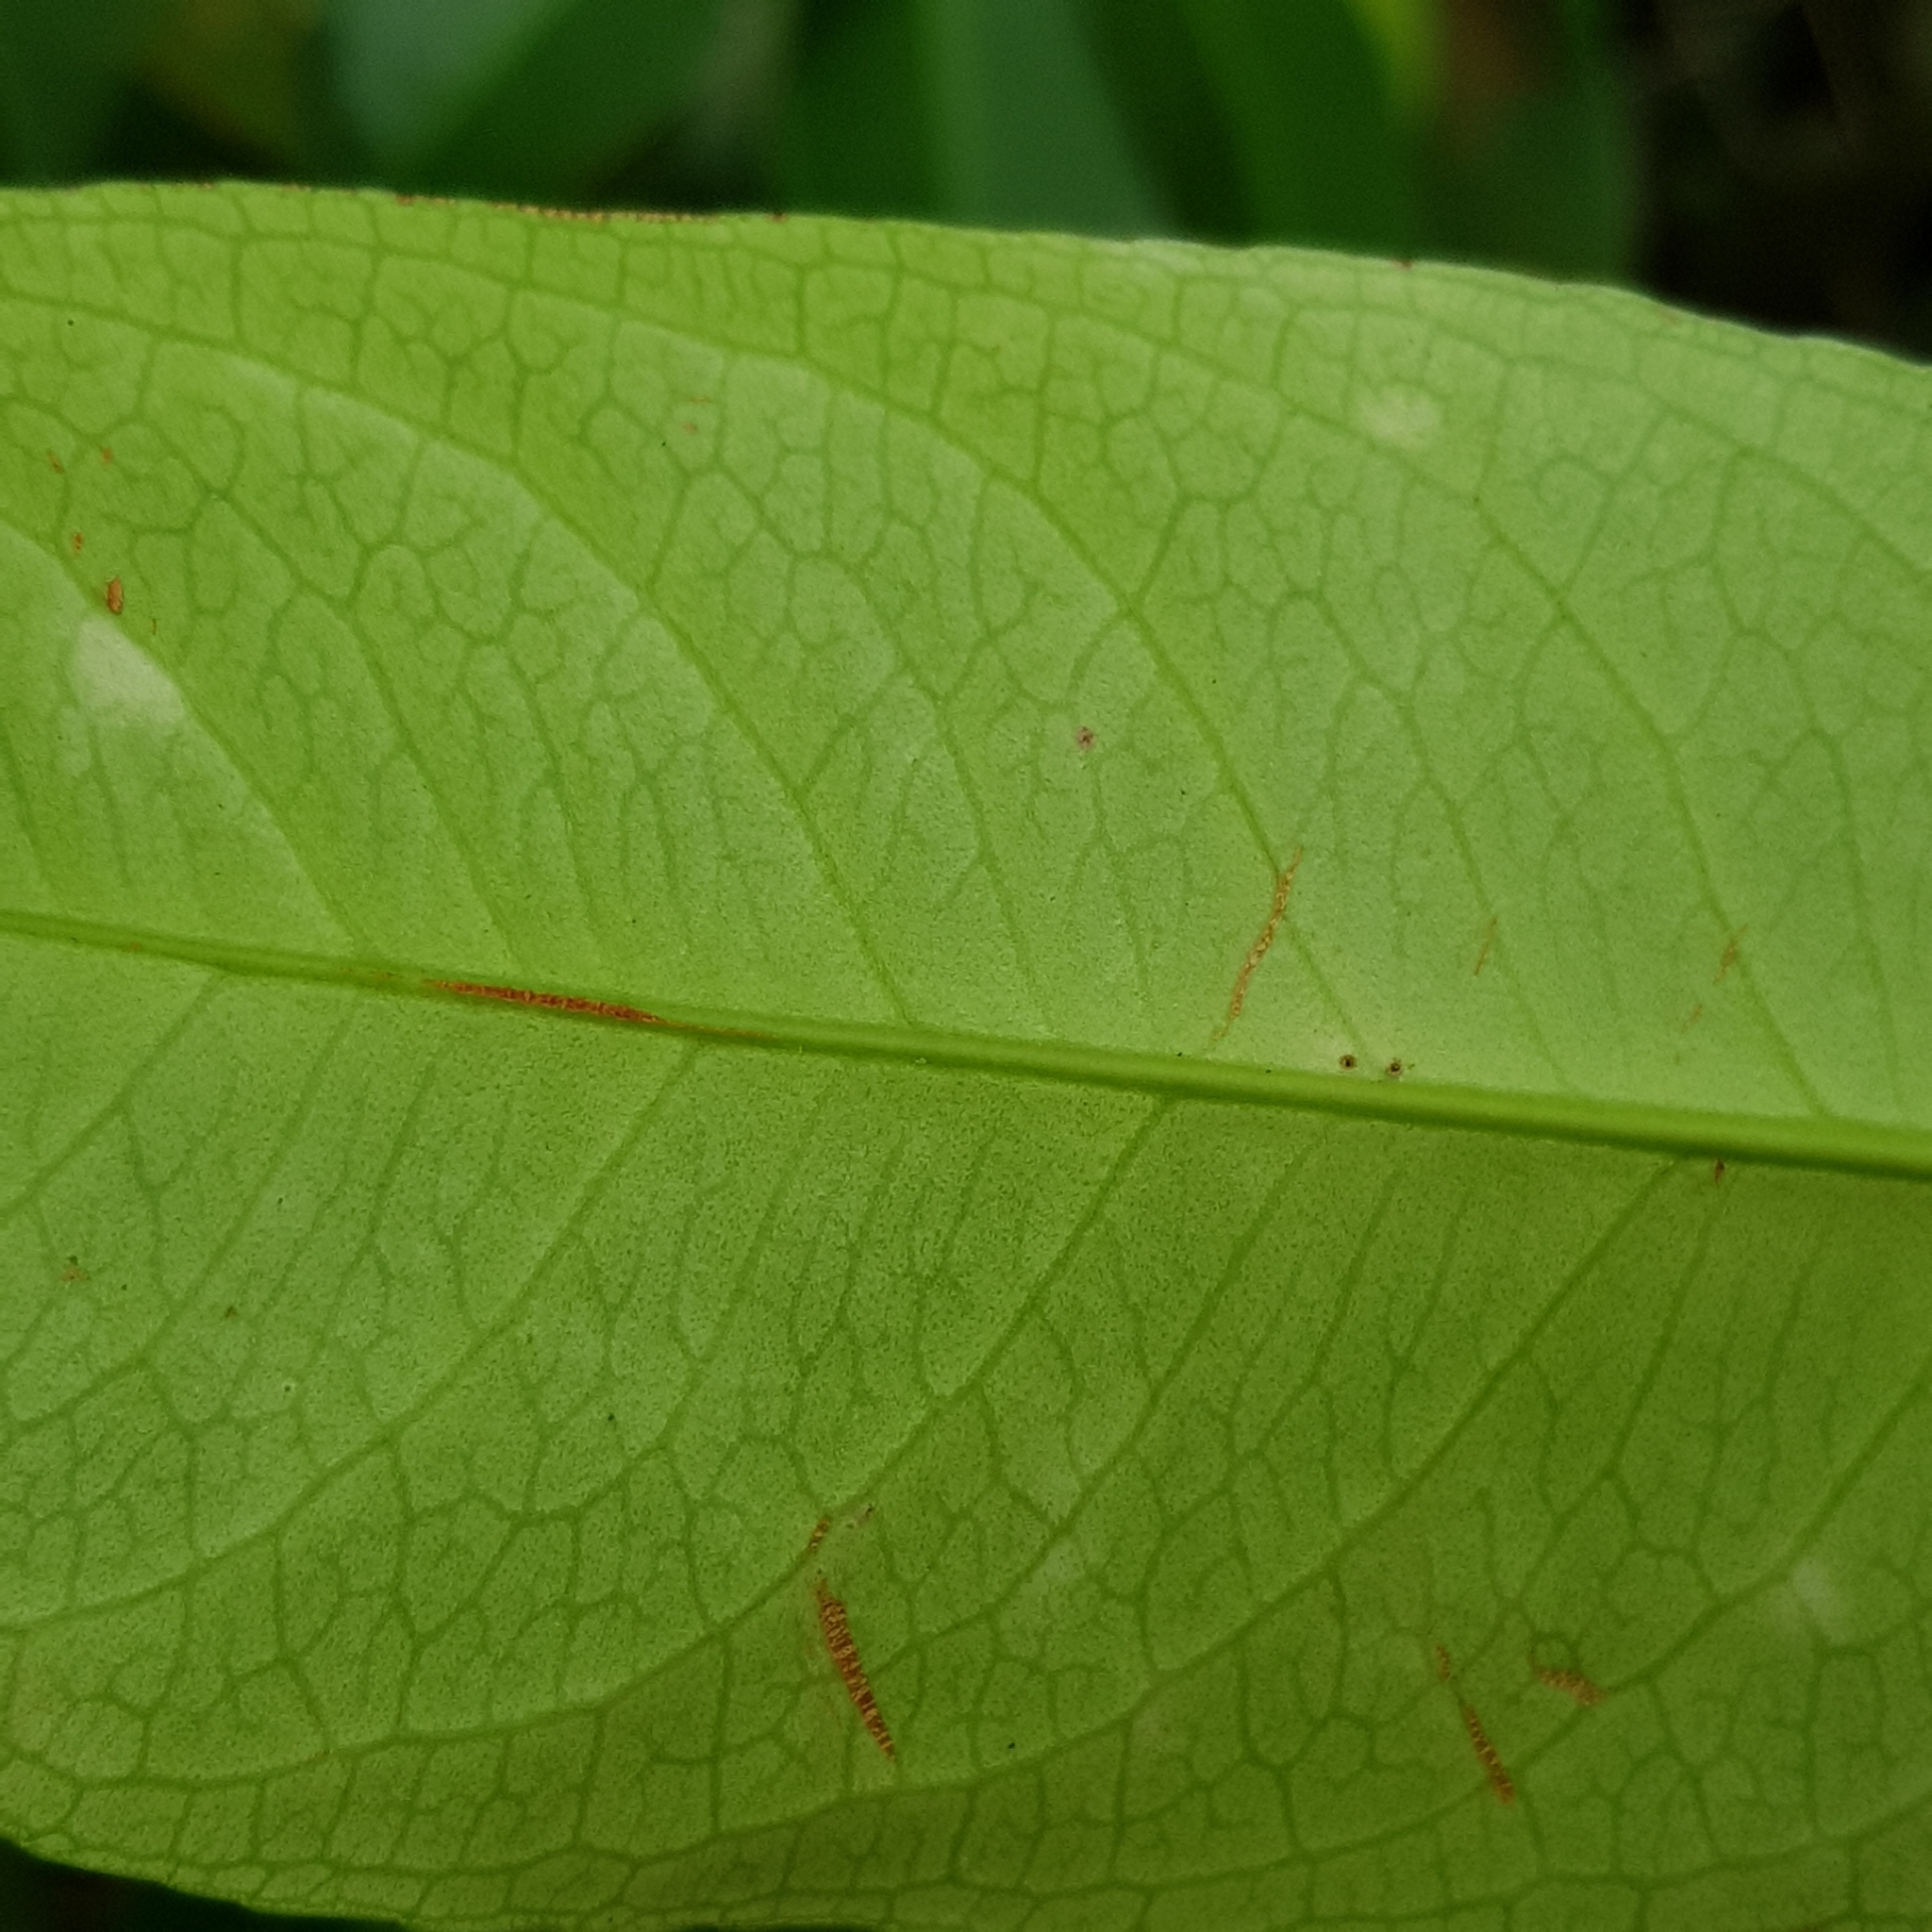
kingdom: Plantae
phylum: Tracheophyta
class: Magnoliopsida
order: Malpighiales
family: Rhizophoraceae
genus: Gynotroches
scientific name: Gynotroches axillaris
